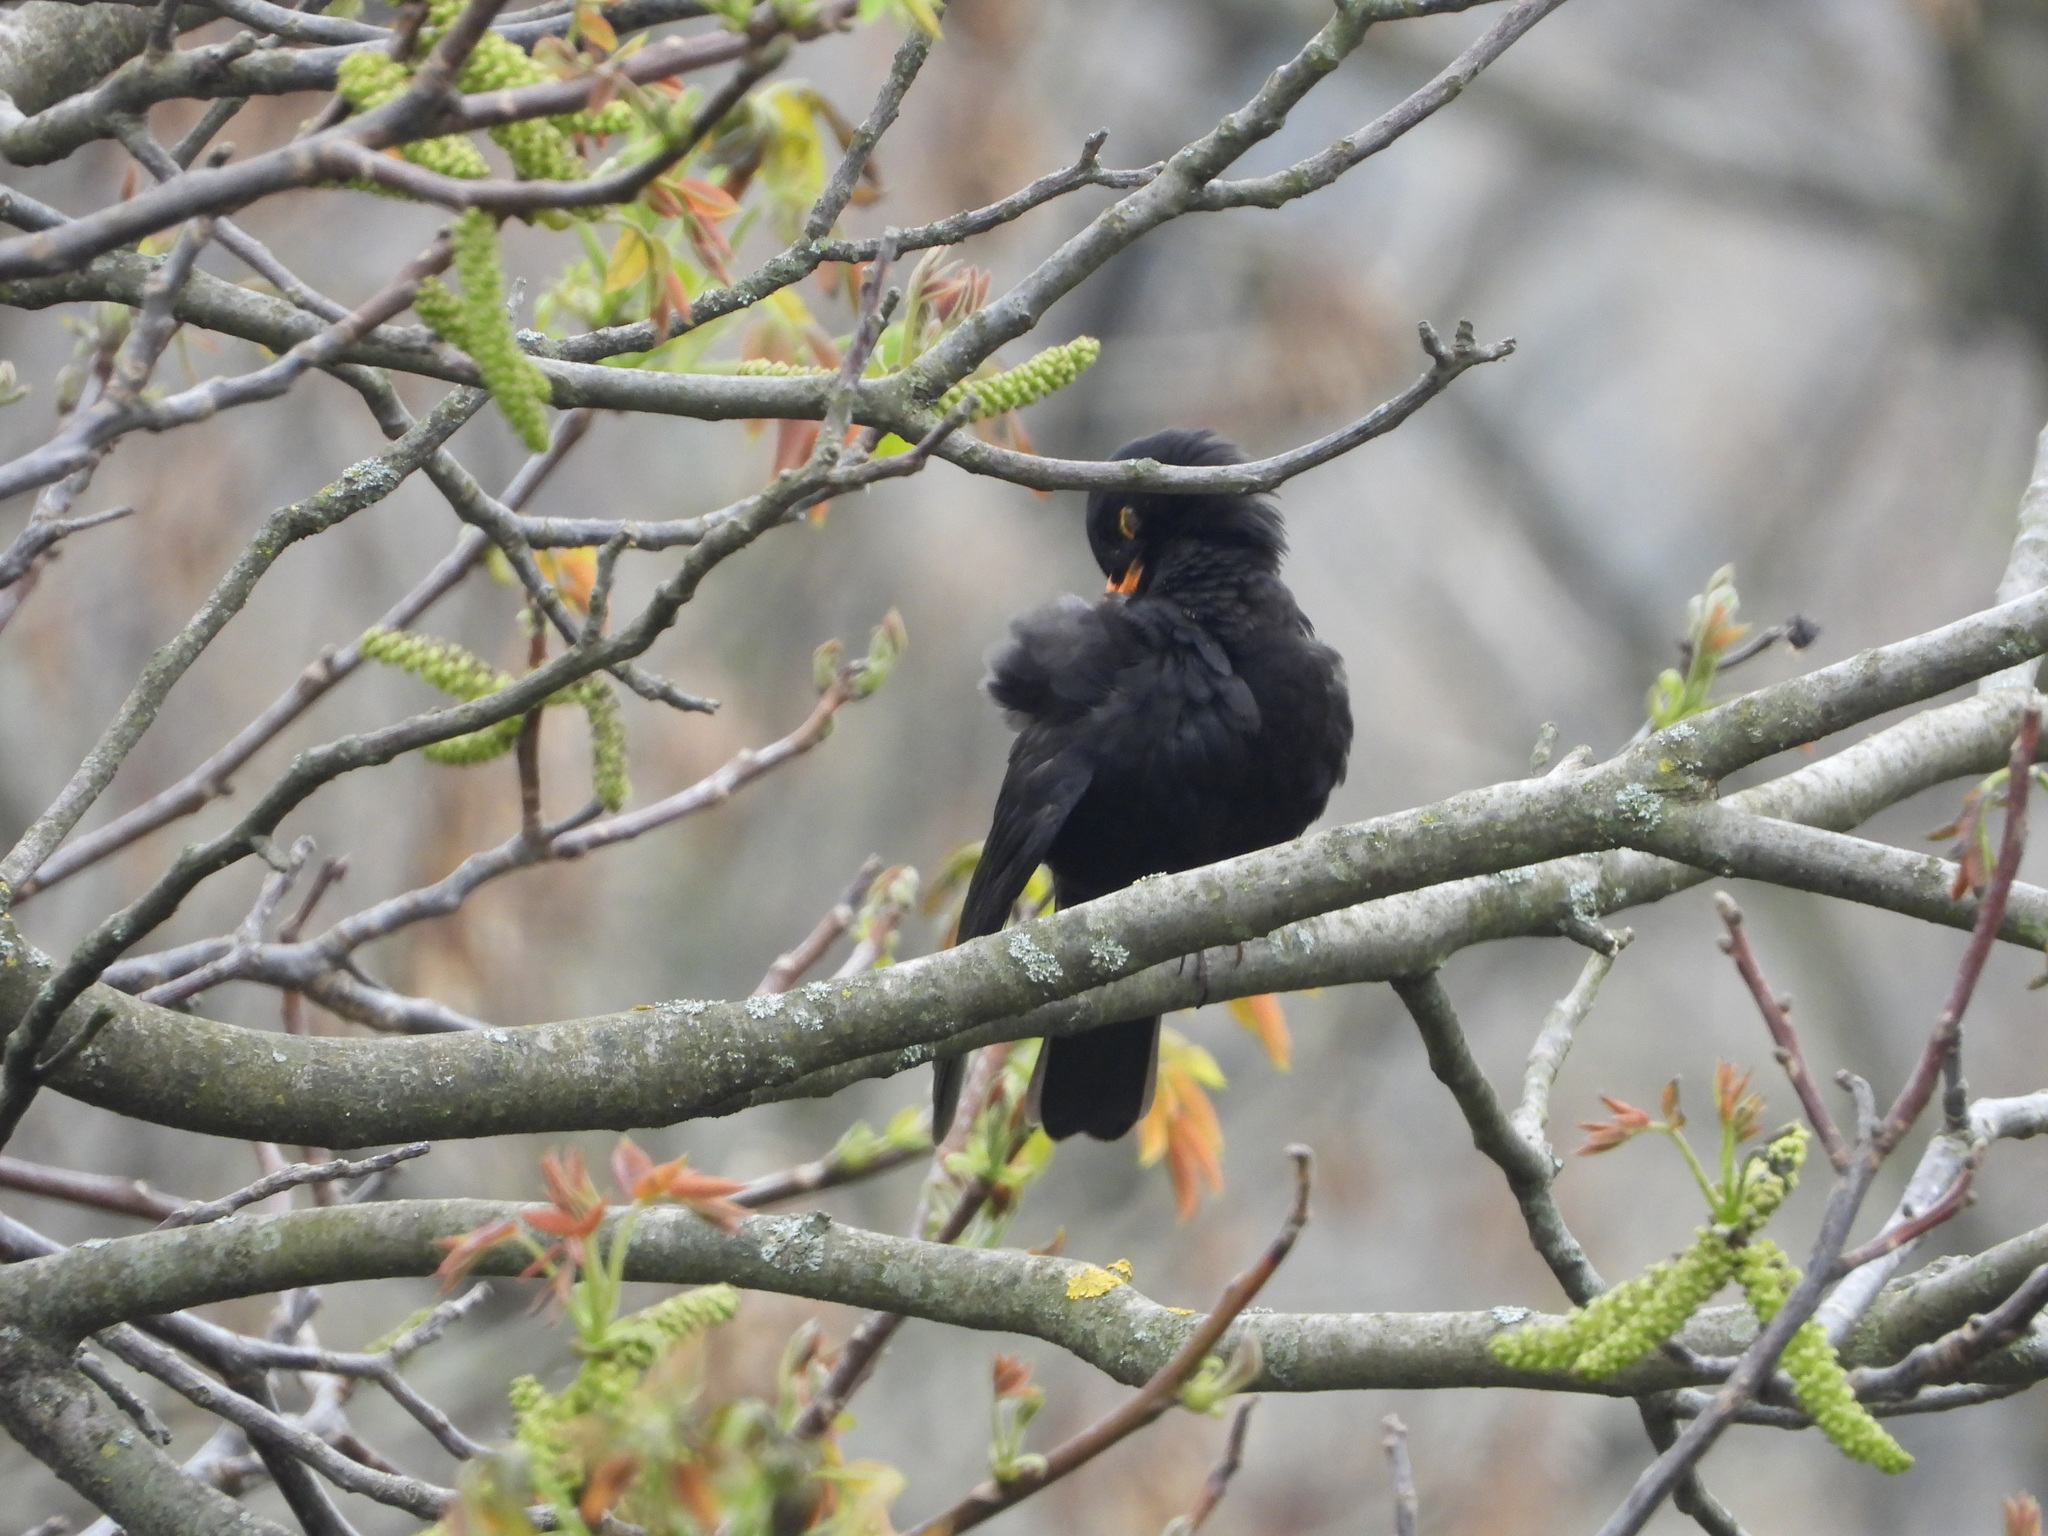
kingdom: Animalia
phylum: Chordata
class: Aves
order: Passeriformes
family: Turdidae
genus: Turdus
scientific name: Turdus merula
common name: Common blackbird
